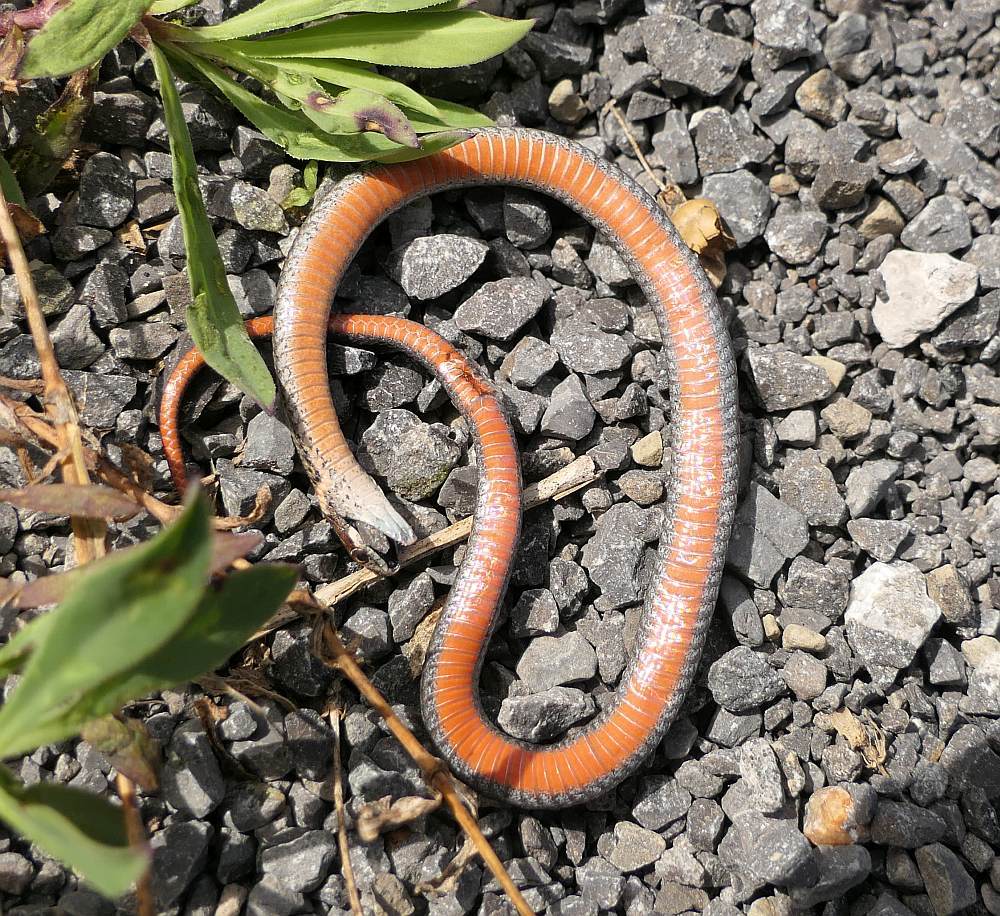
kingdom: Animalia
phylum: Chordata
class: Squamata
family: Colubridae
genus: Storeria
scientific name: Storeria occipitomaculata
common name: Redbelly snake
